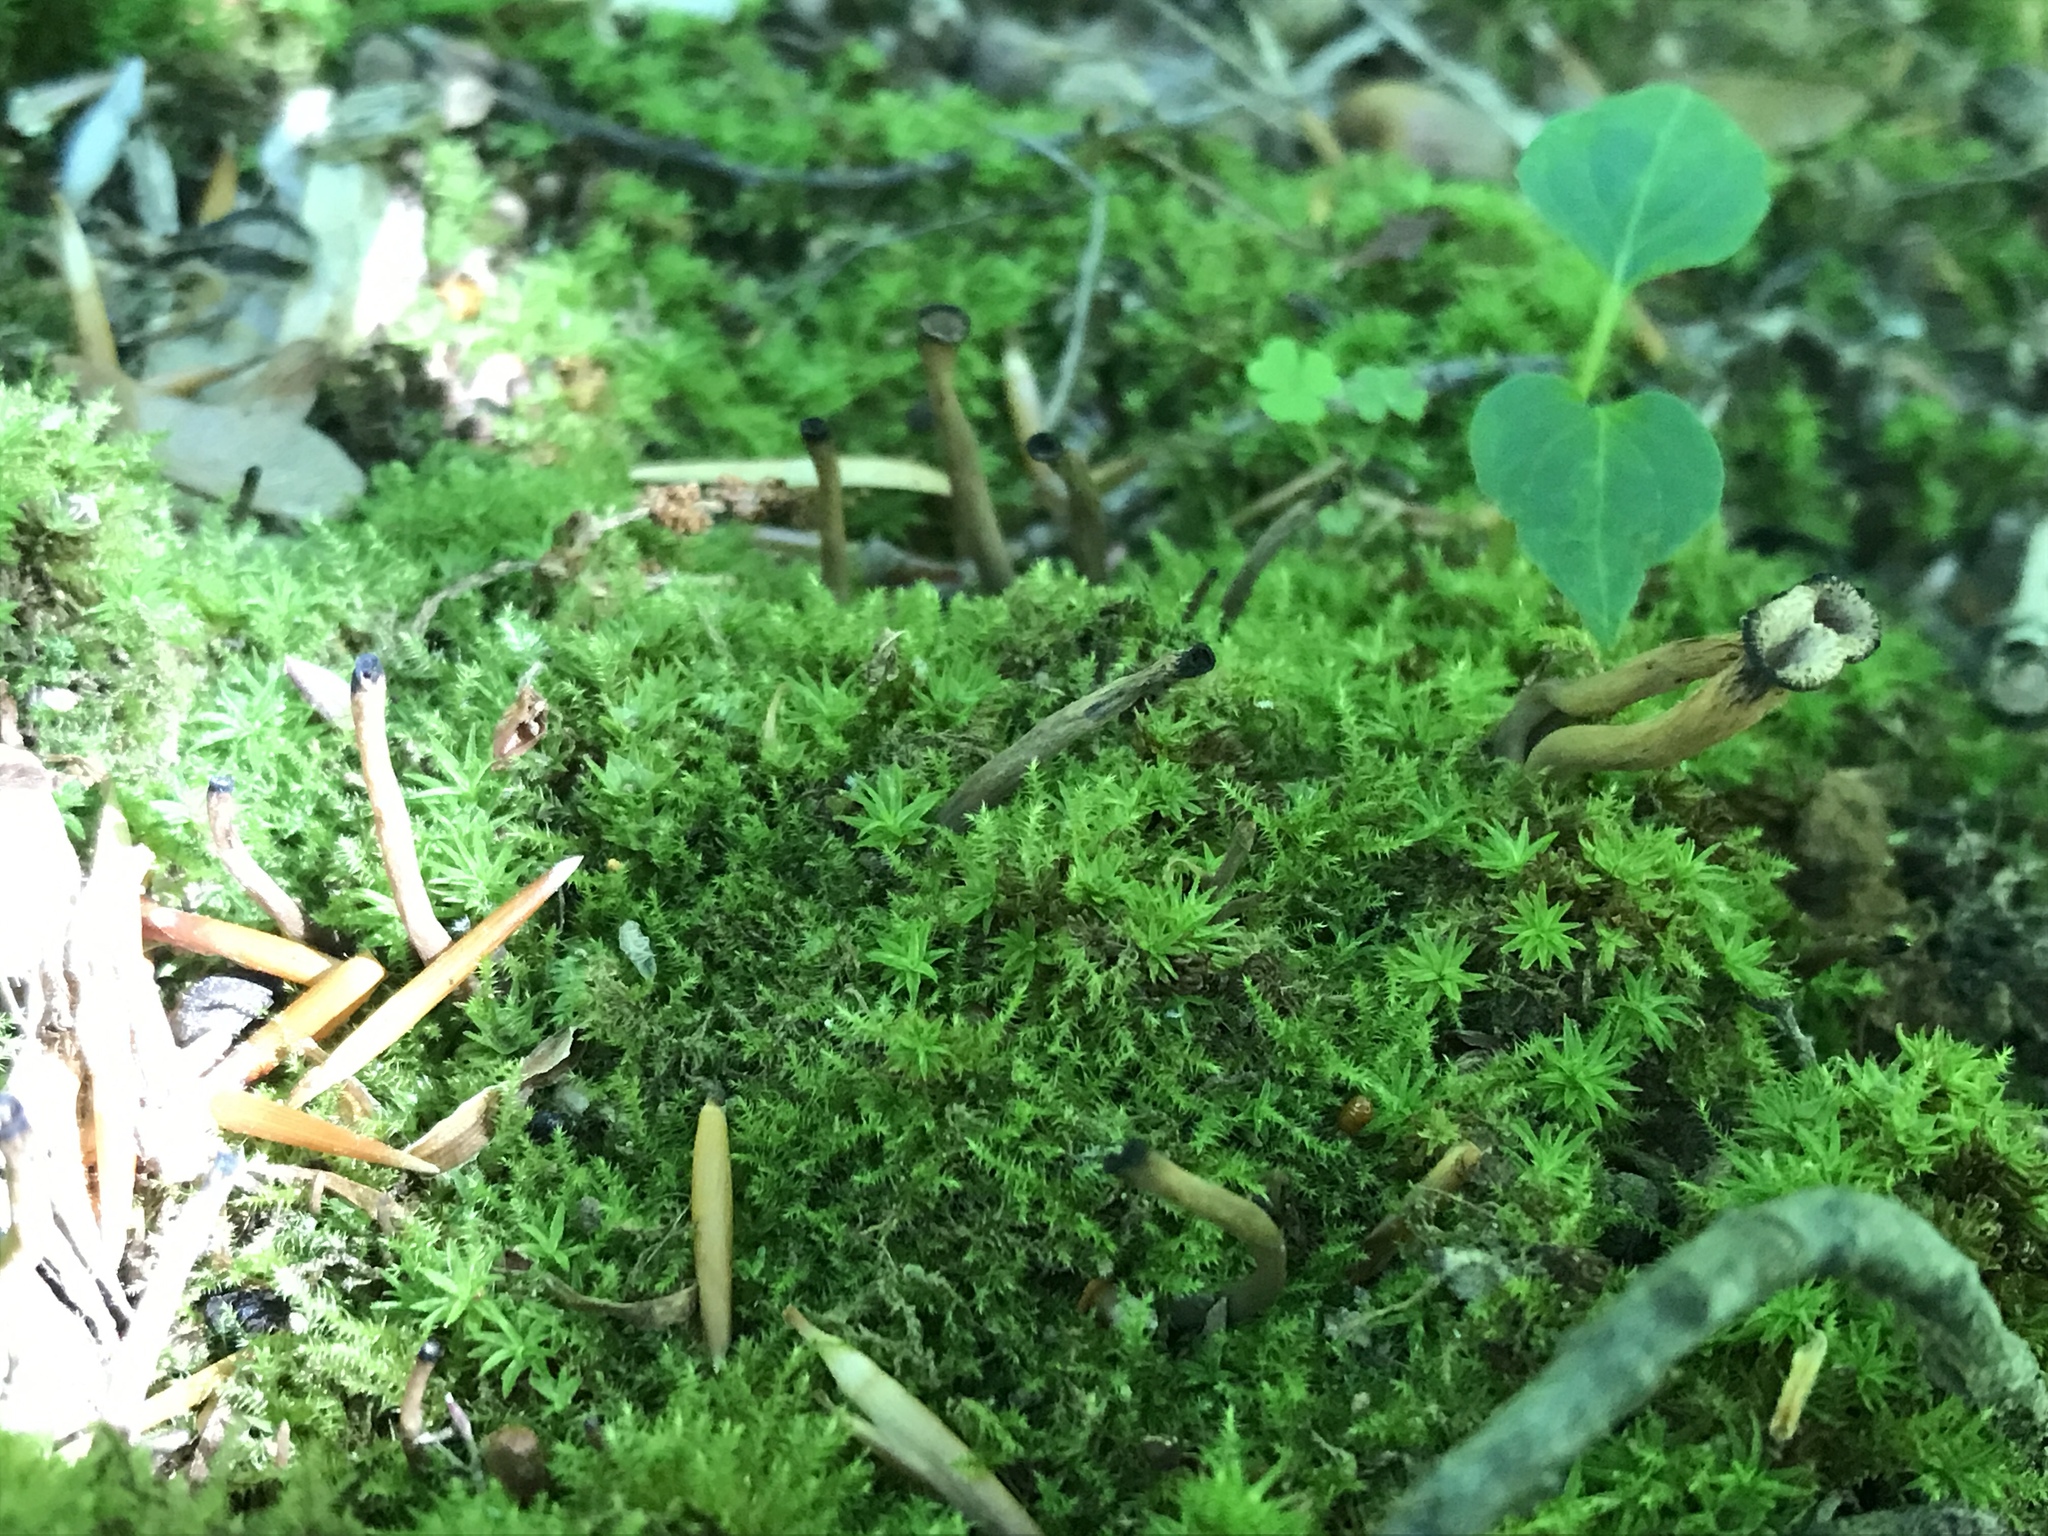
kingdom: Fungi
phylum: Basidiomycota
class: Agaricomycetes
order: Cantharellales
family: Hydnaceae
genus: Craterellus
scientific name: Craterellus cornucopioides
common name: Horn of plenty
